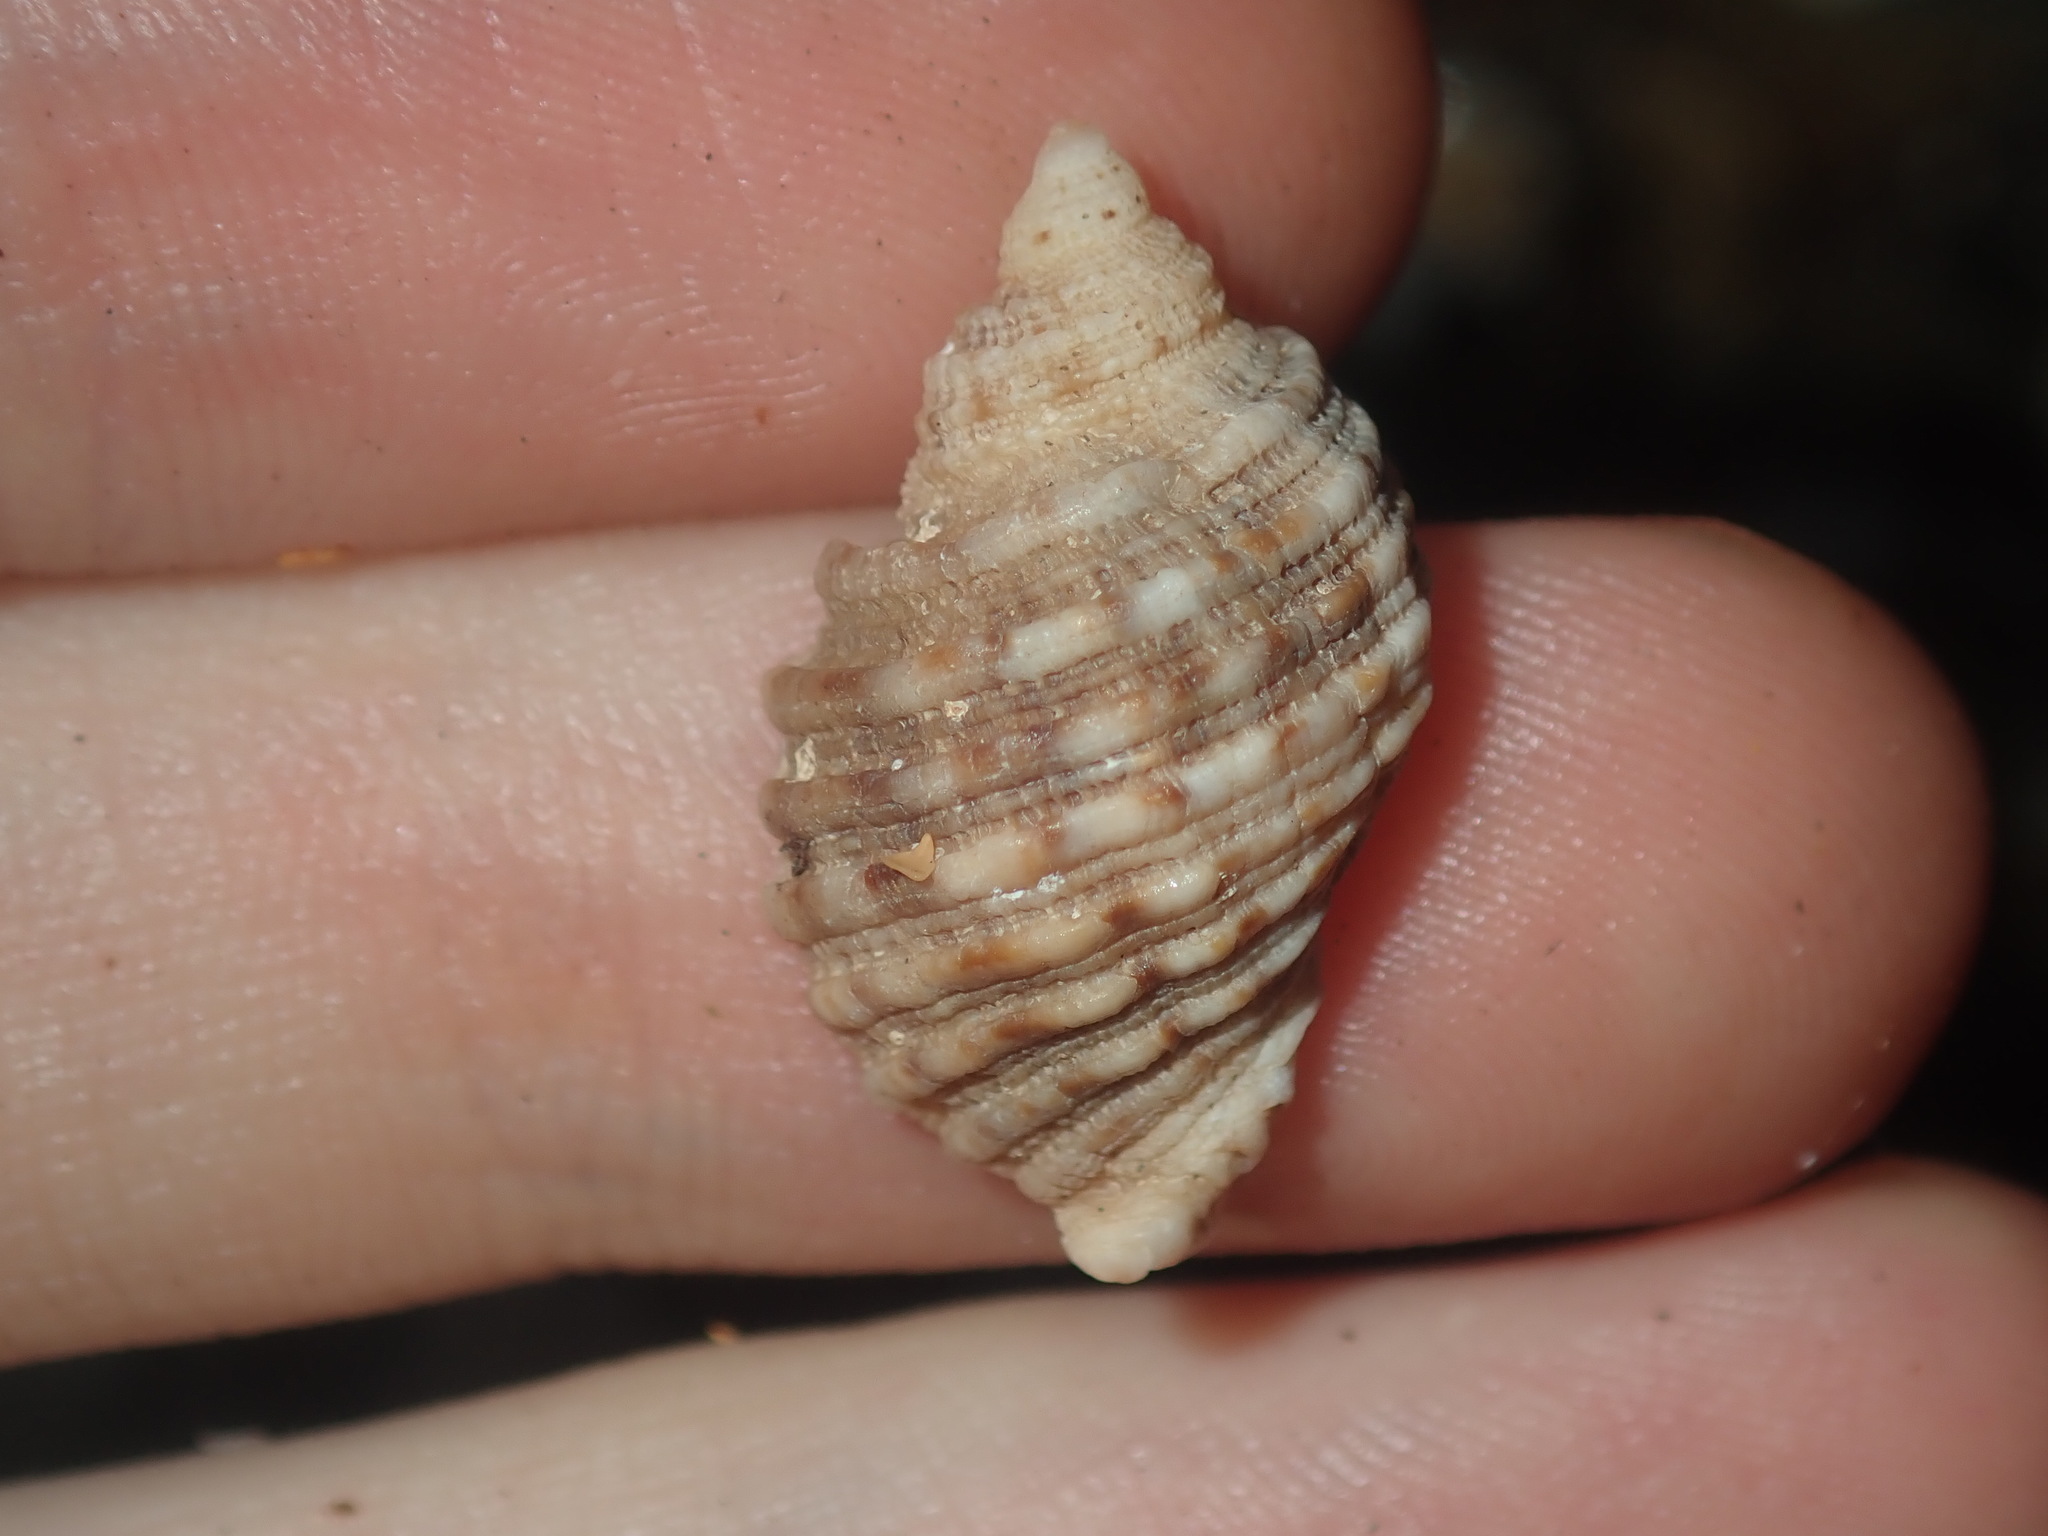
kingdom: Animalia
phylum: Mollusca
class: Gastropoda
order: Neogastropoda
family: Muricidae
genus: Dicathais
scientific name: Dicathais orbita
